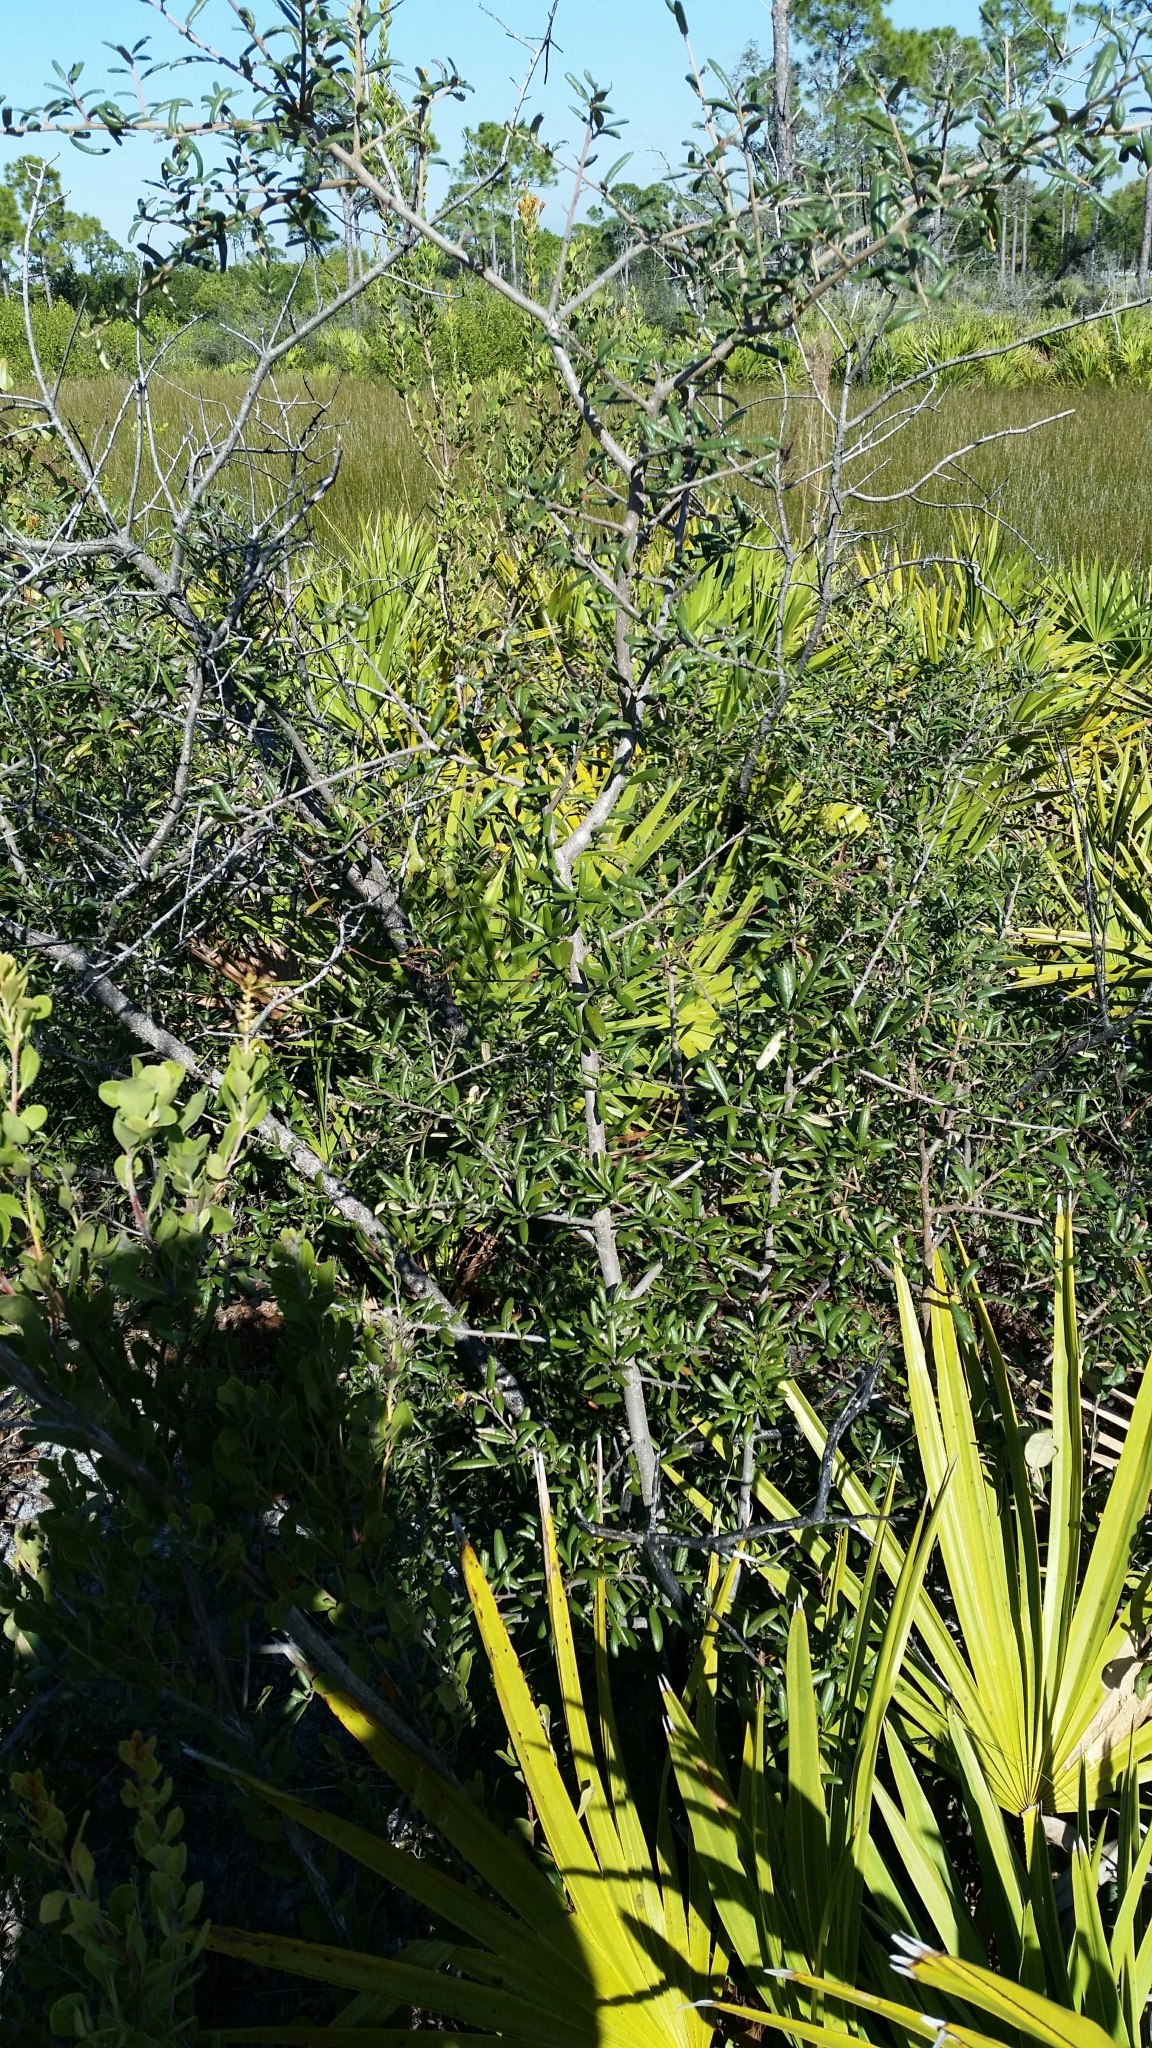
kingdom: Plantae
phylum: Tracheophyta
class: Magnoliopsida
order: Fagales
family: Fagaceae
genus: Quercus
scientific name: Quercus geminata
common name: Sand live oak
